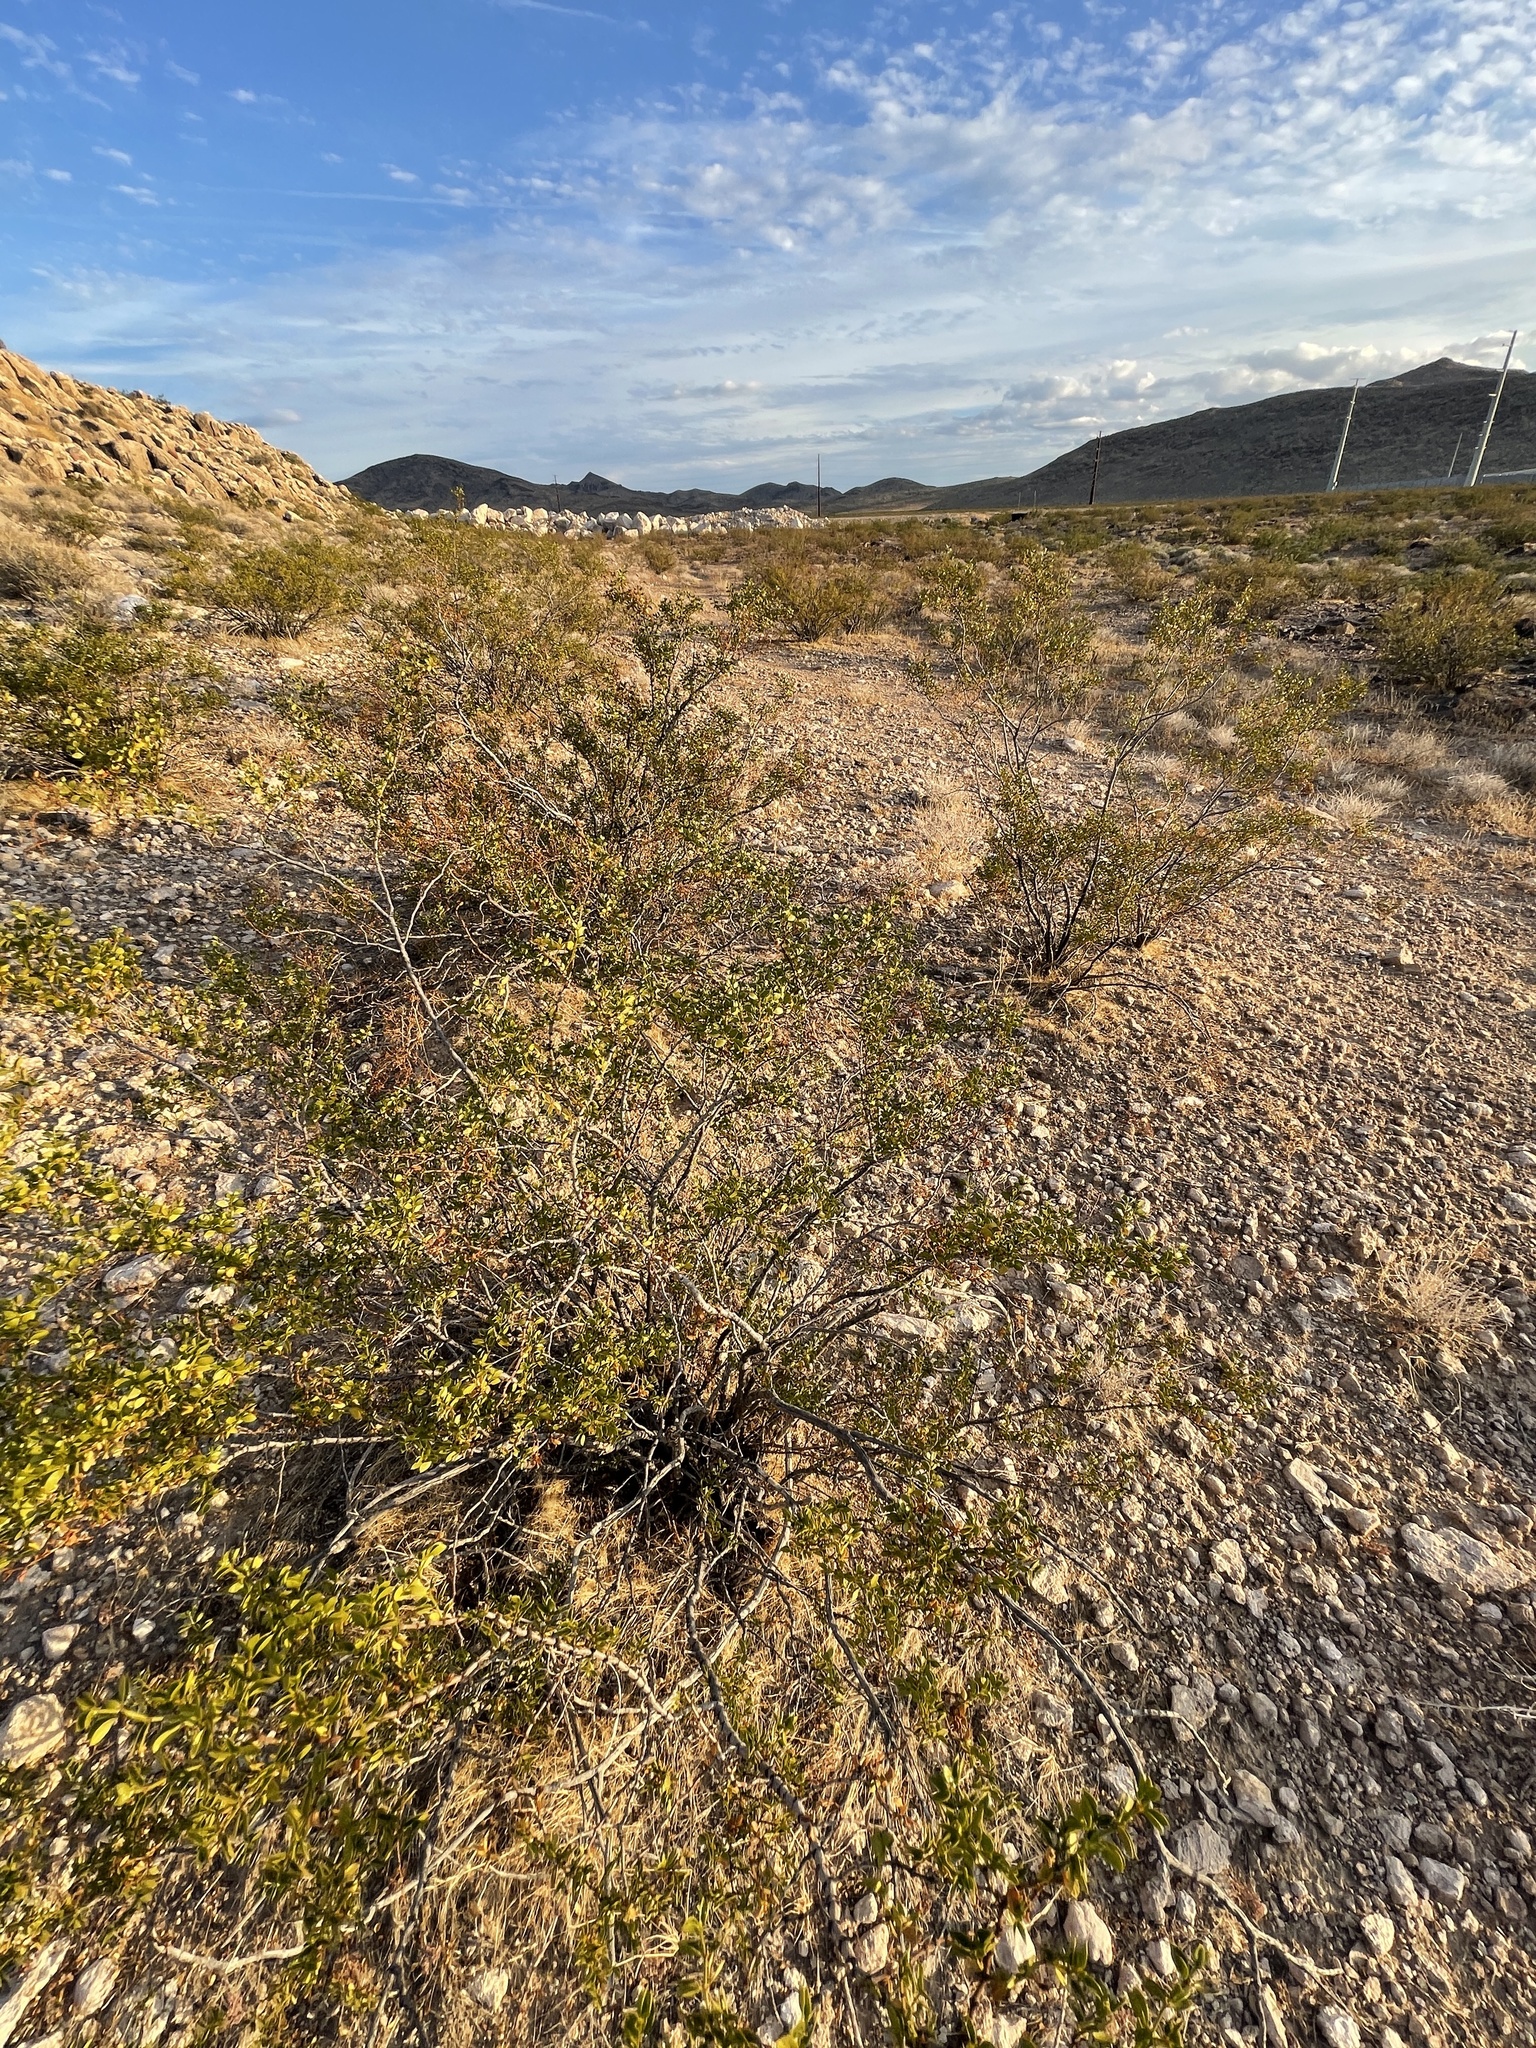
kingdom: Plantae
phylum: Tracheophyta
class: Magnoliopsida
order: Zygophyllales
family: Zygophyllaceae
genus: Larrea
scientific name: Larrea tridentata
